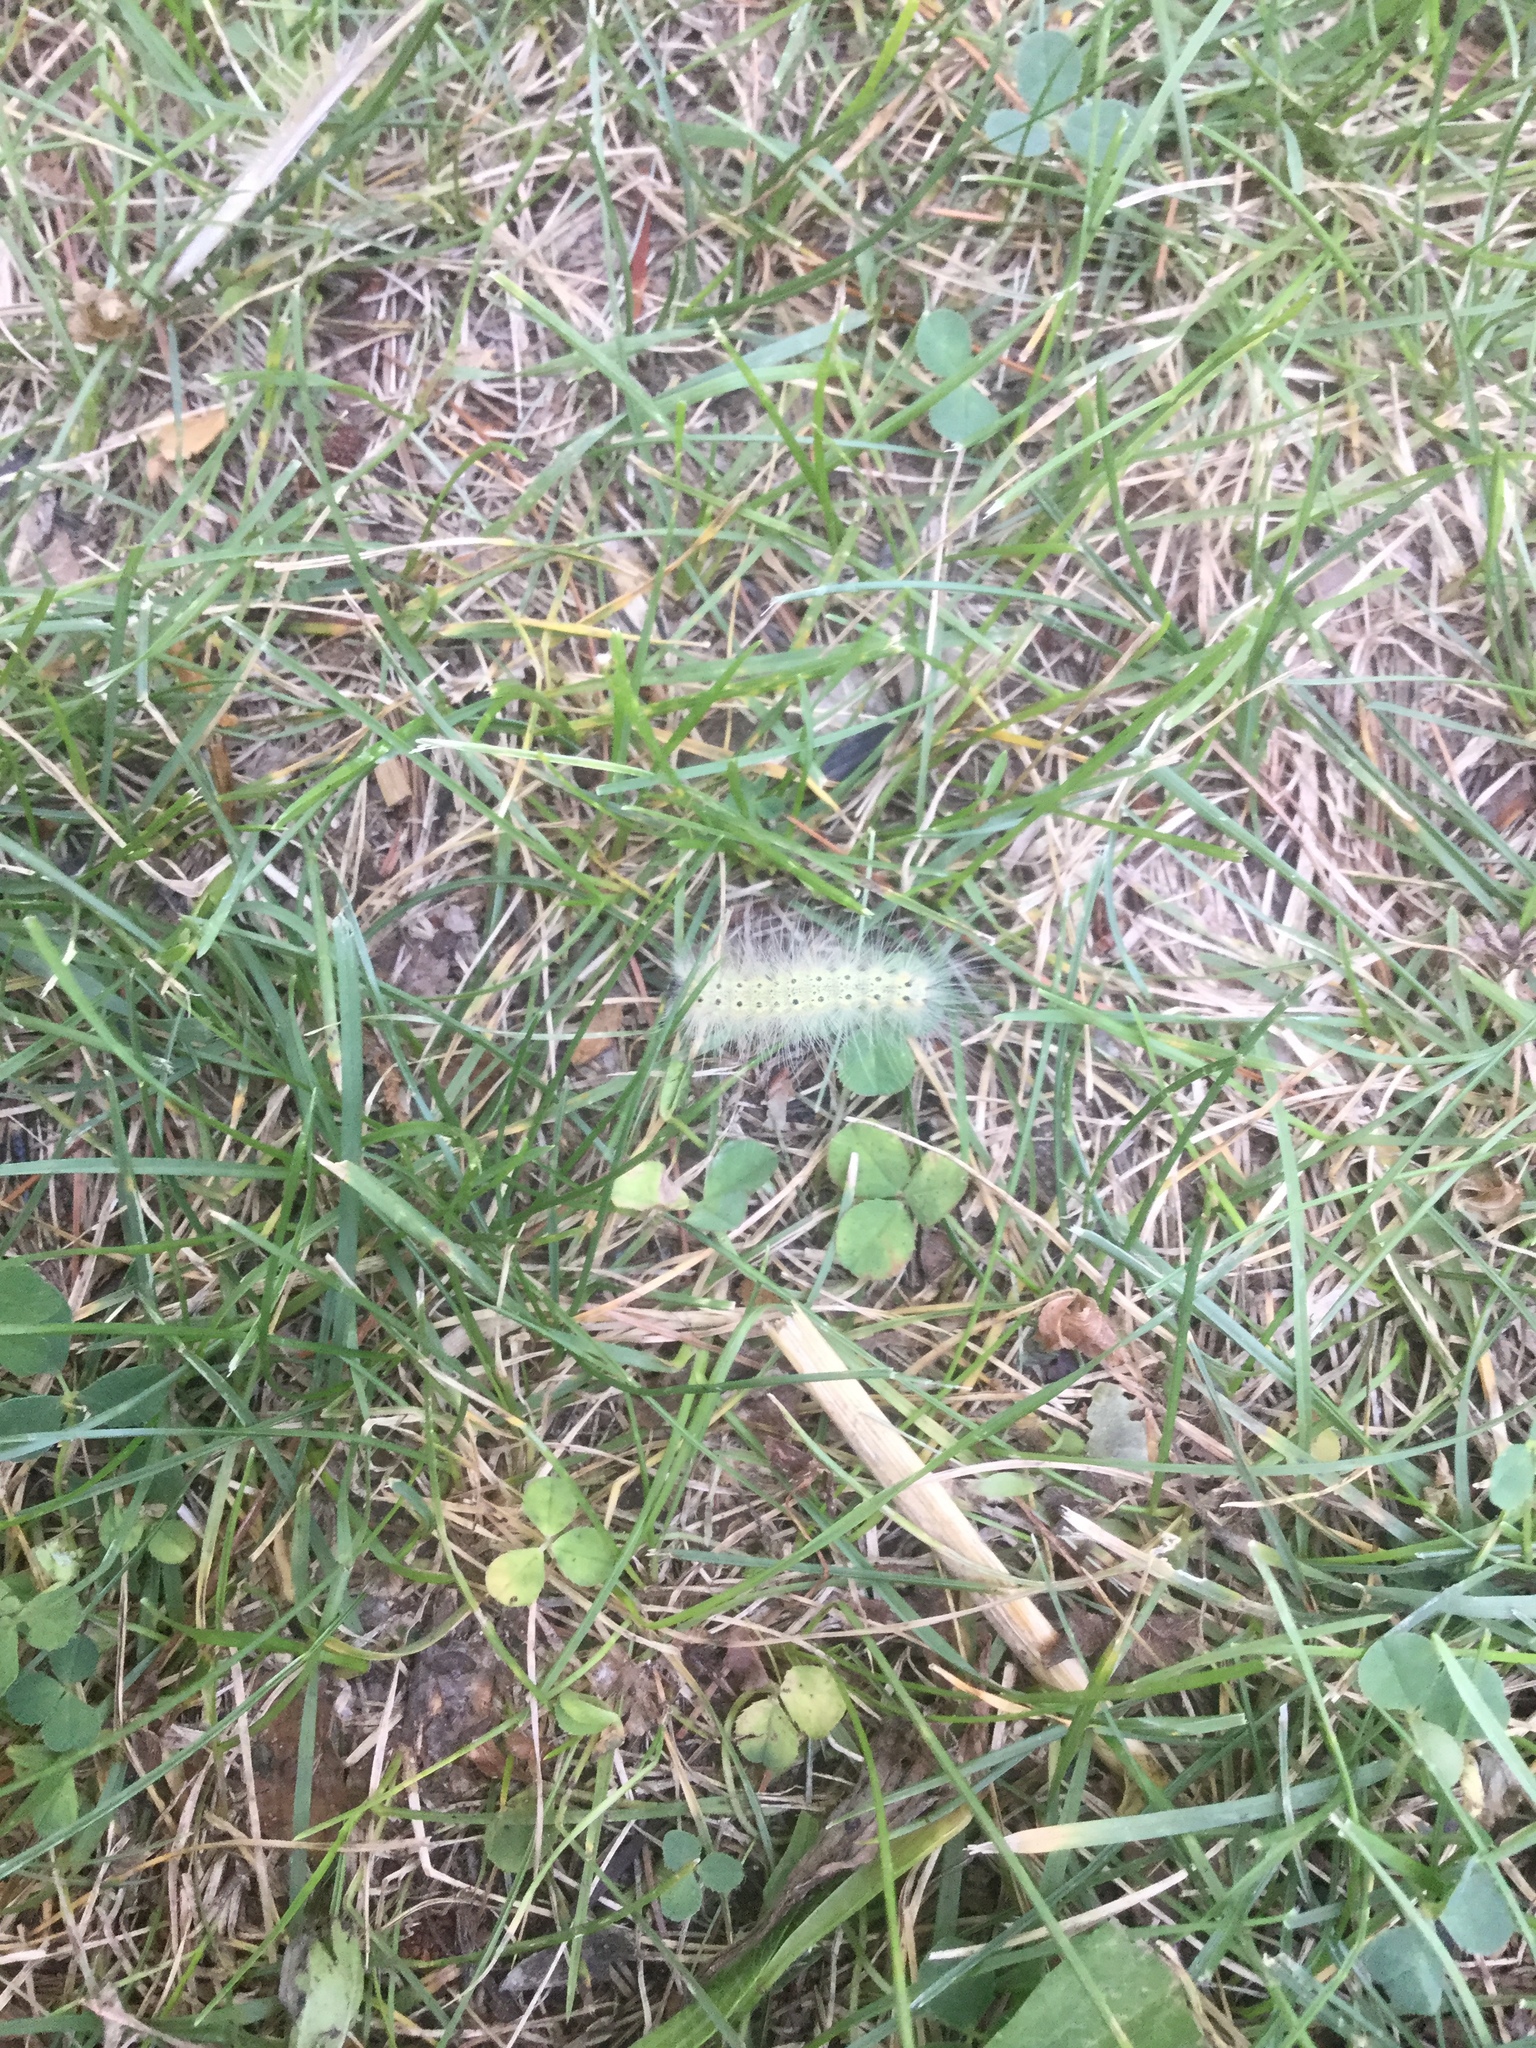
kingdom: Animalia
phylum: Arthropoda
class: Insecta
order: Lepidoptera
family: Erebidae
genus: Lophocampa
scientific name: Lophocampa caryae
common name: Hickory tussock moth
